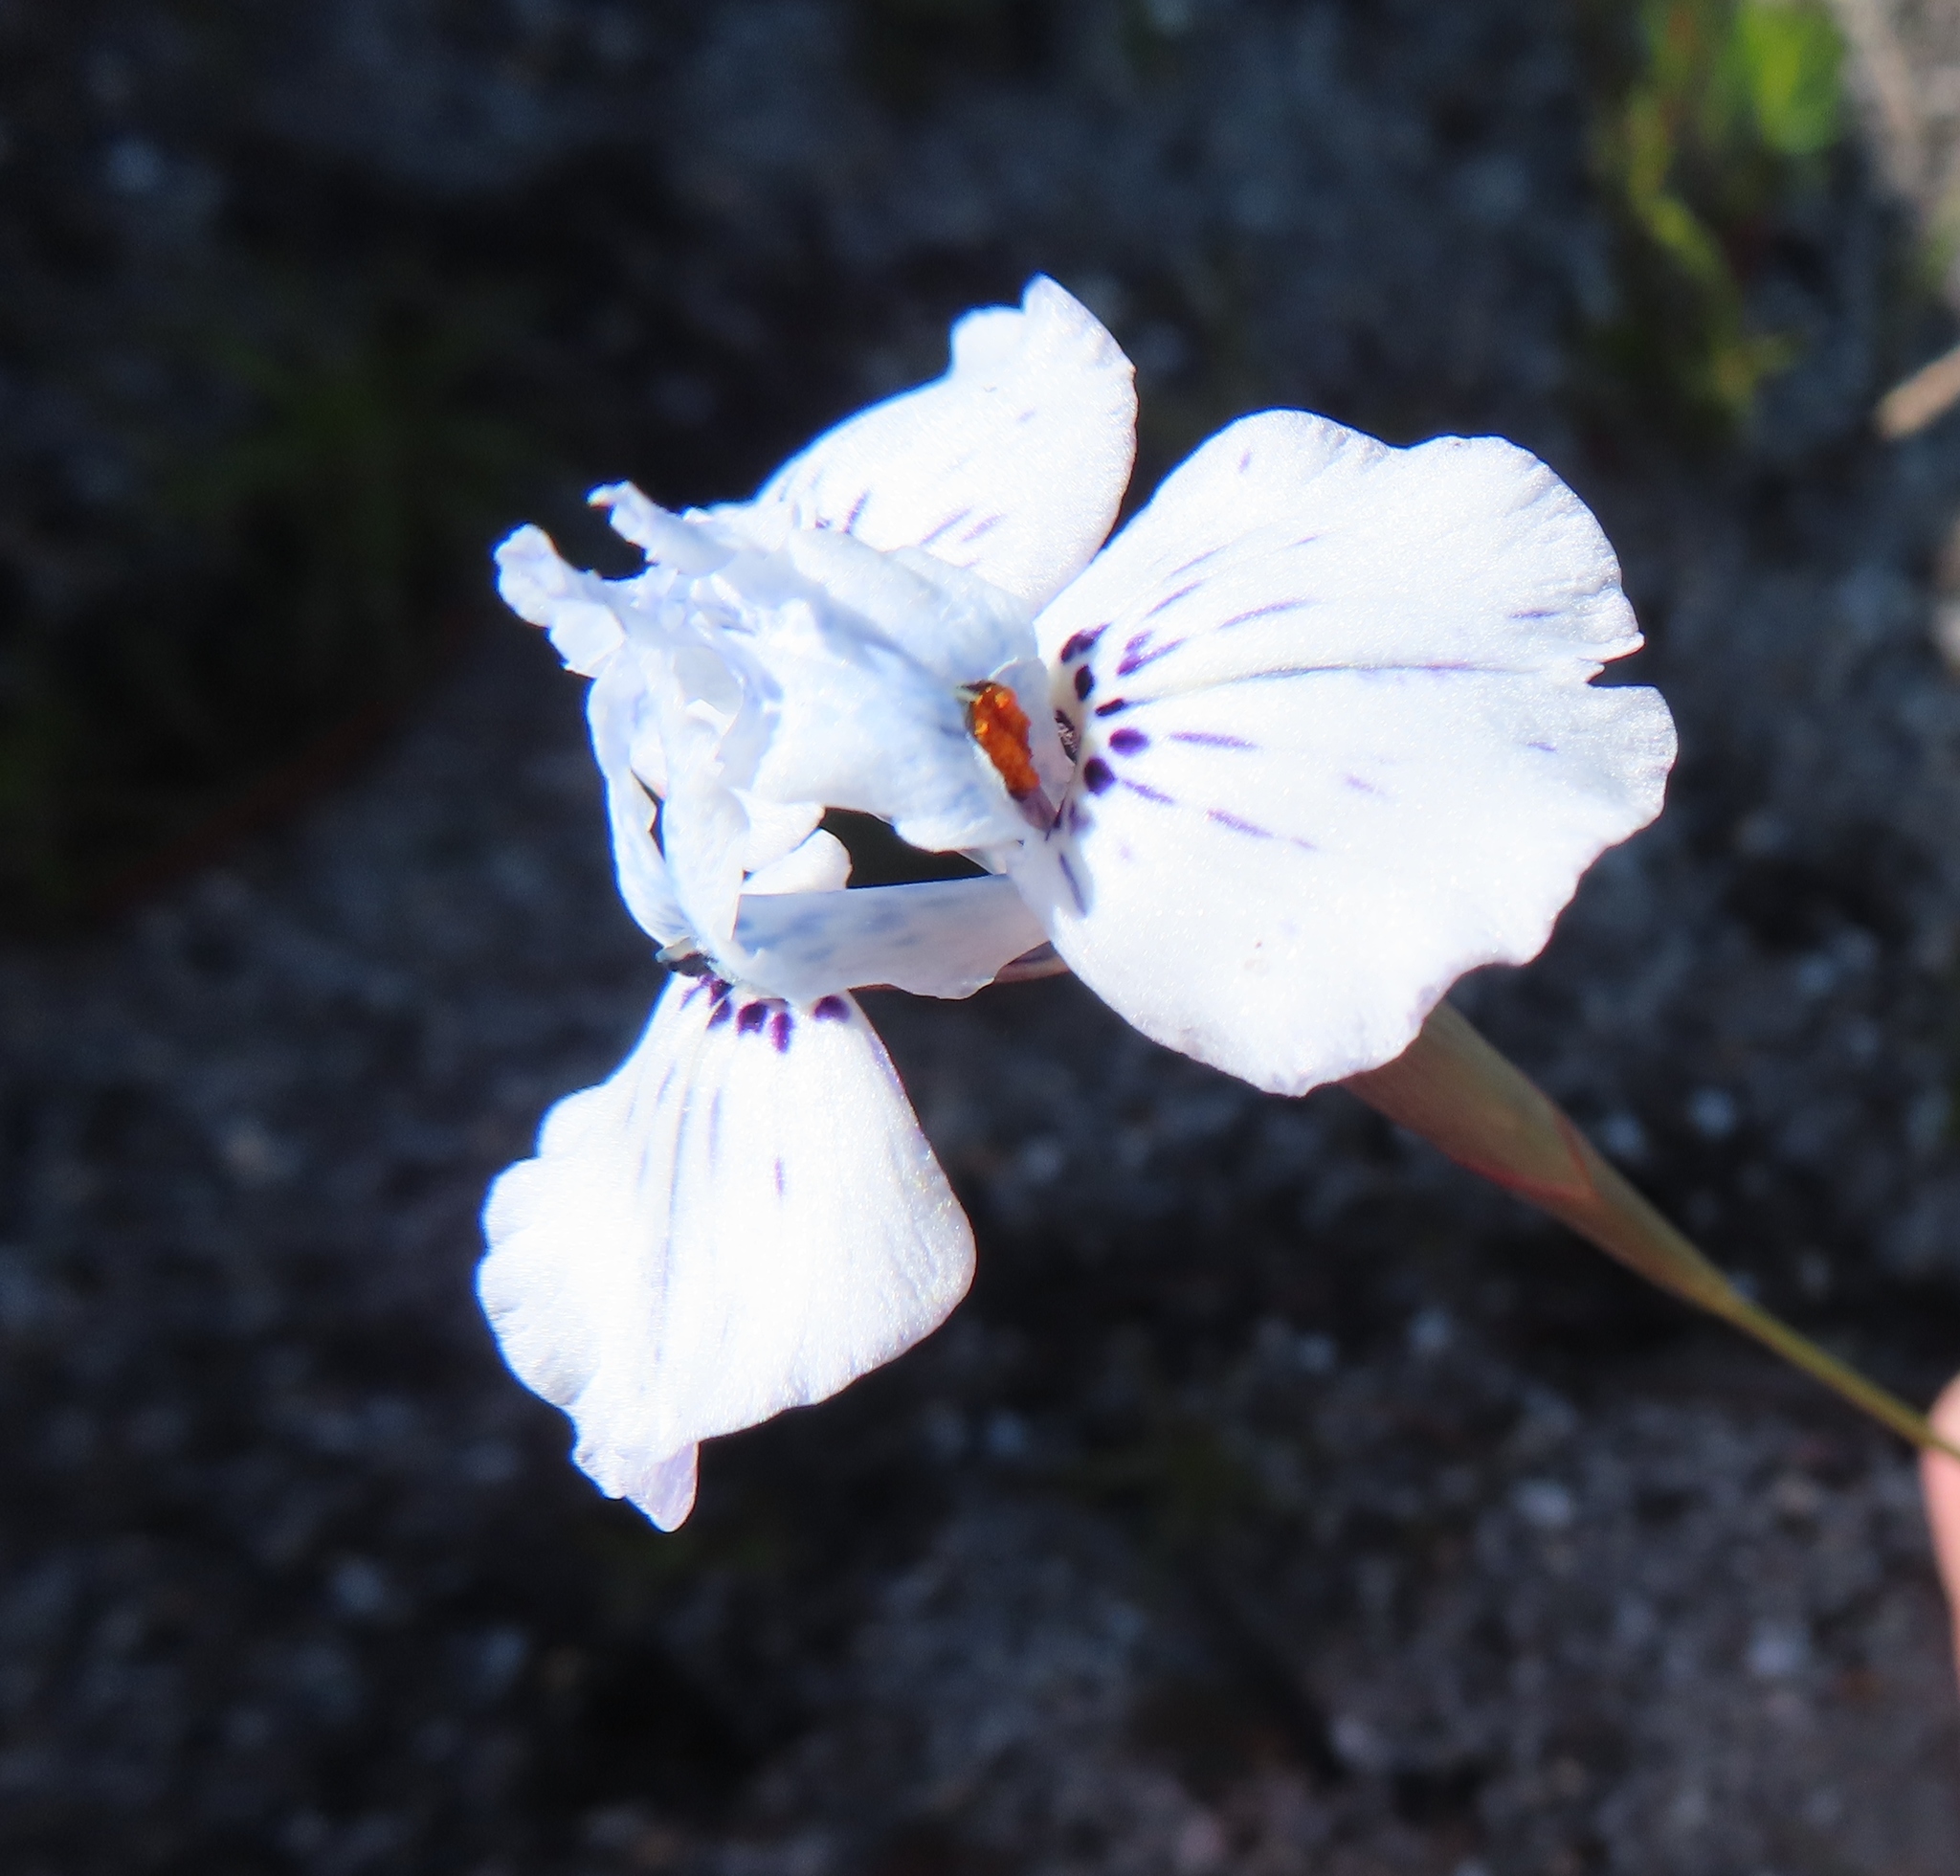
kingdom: Plantae
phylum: Tracheophyta
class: Liliopsida
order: Asparagales
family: Iridaceae
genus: Moraea
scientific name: Moraea barnardii
